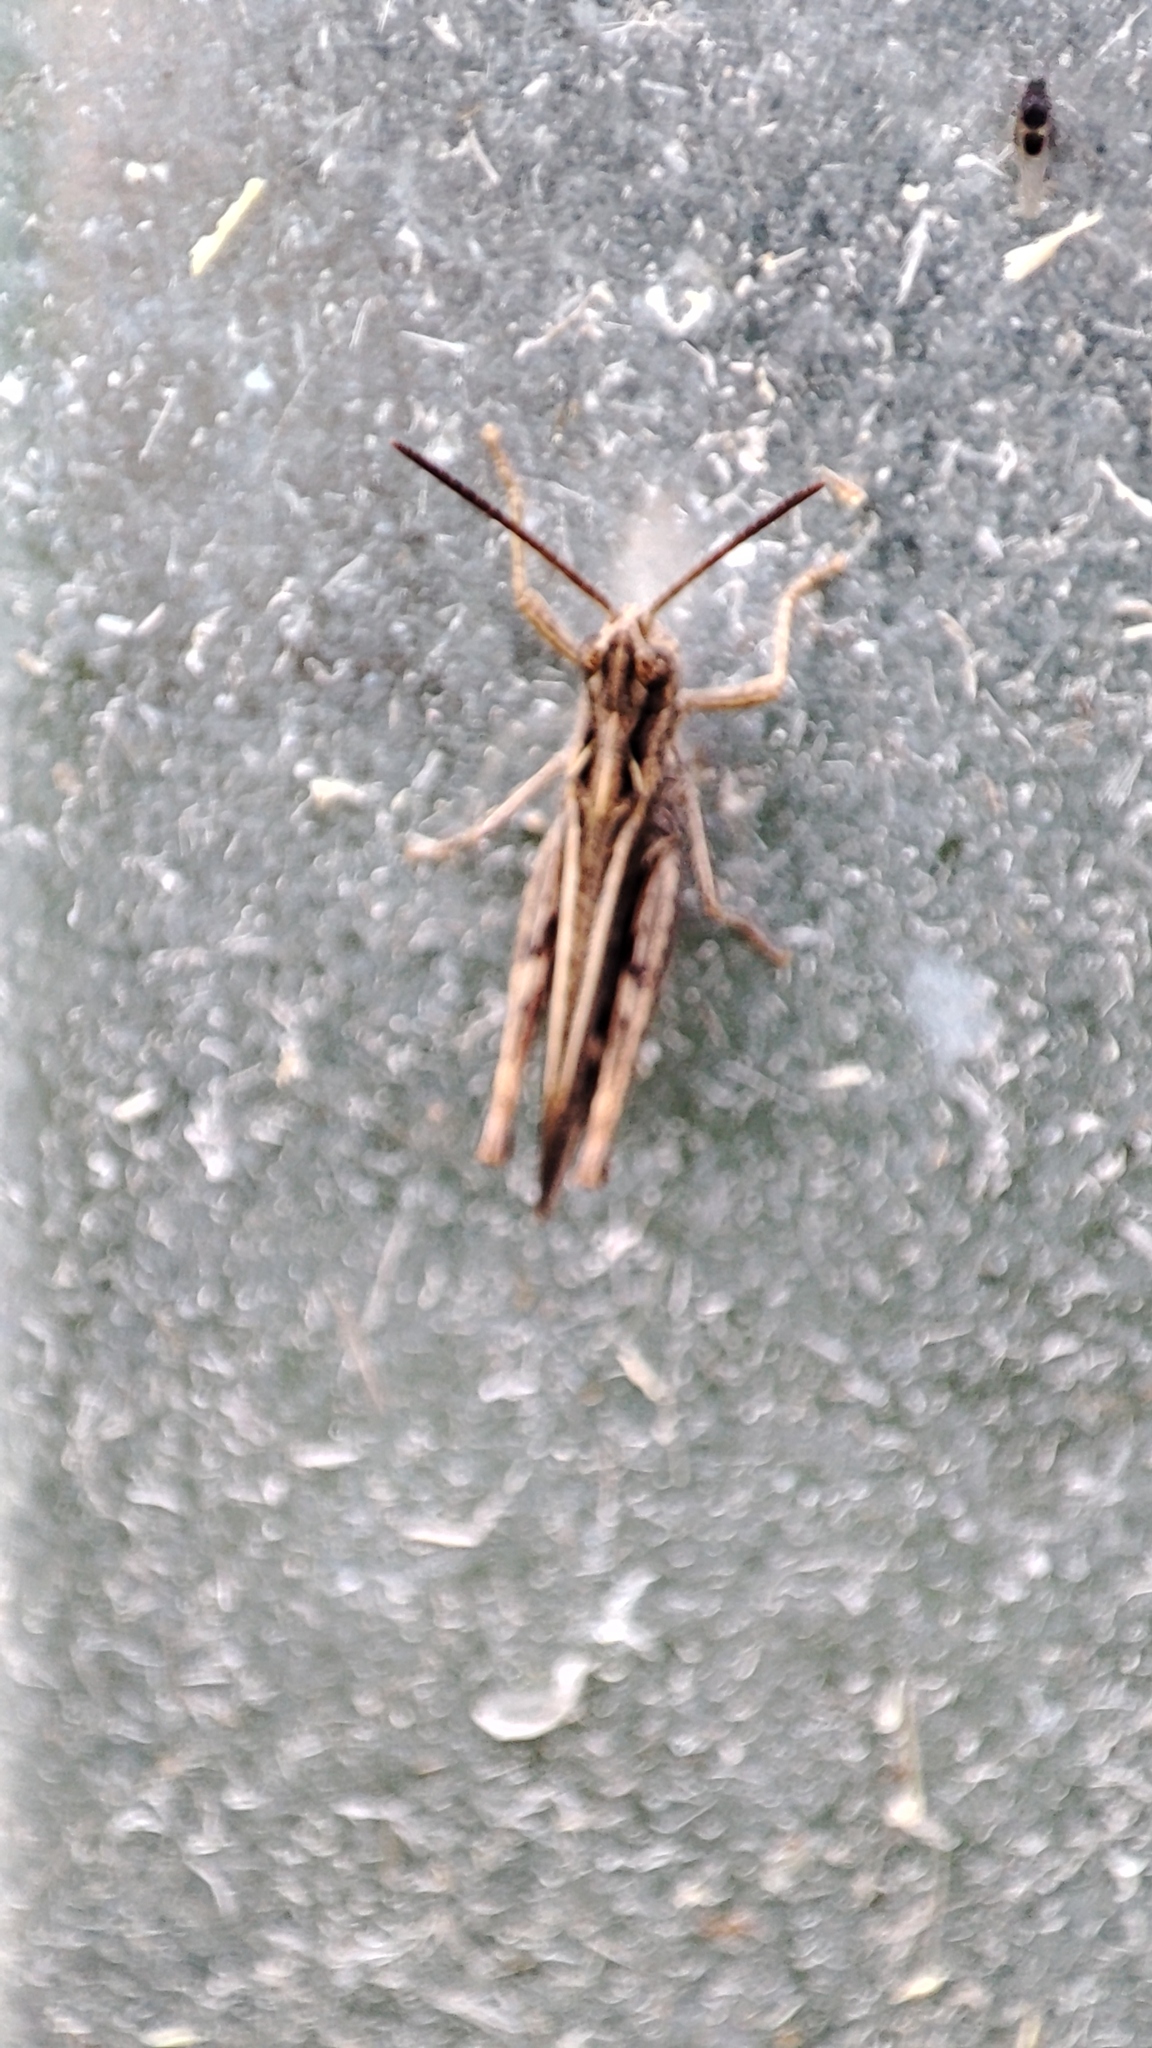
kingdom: Animalia
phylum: Arthropoda
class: Insecta
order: Orthoptera
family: Acrididae
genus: Chorthippus
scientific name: Chorthippus brunneus
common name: Field grasshopper
